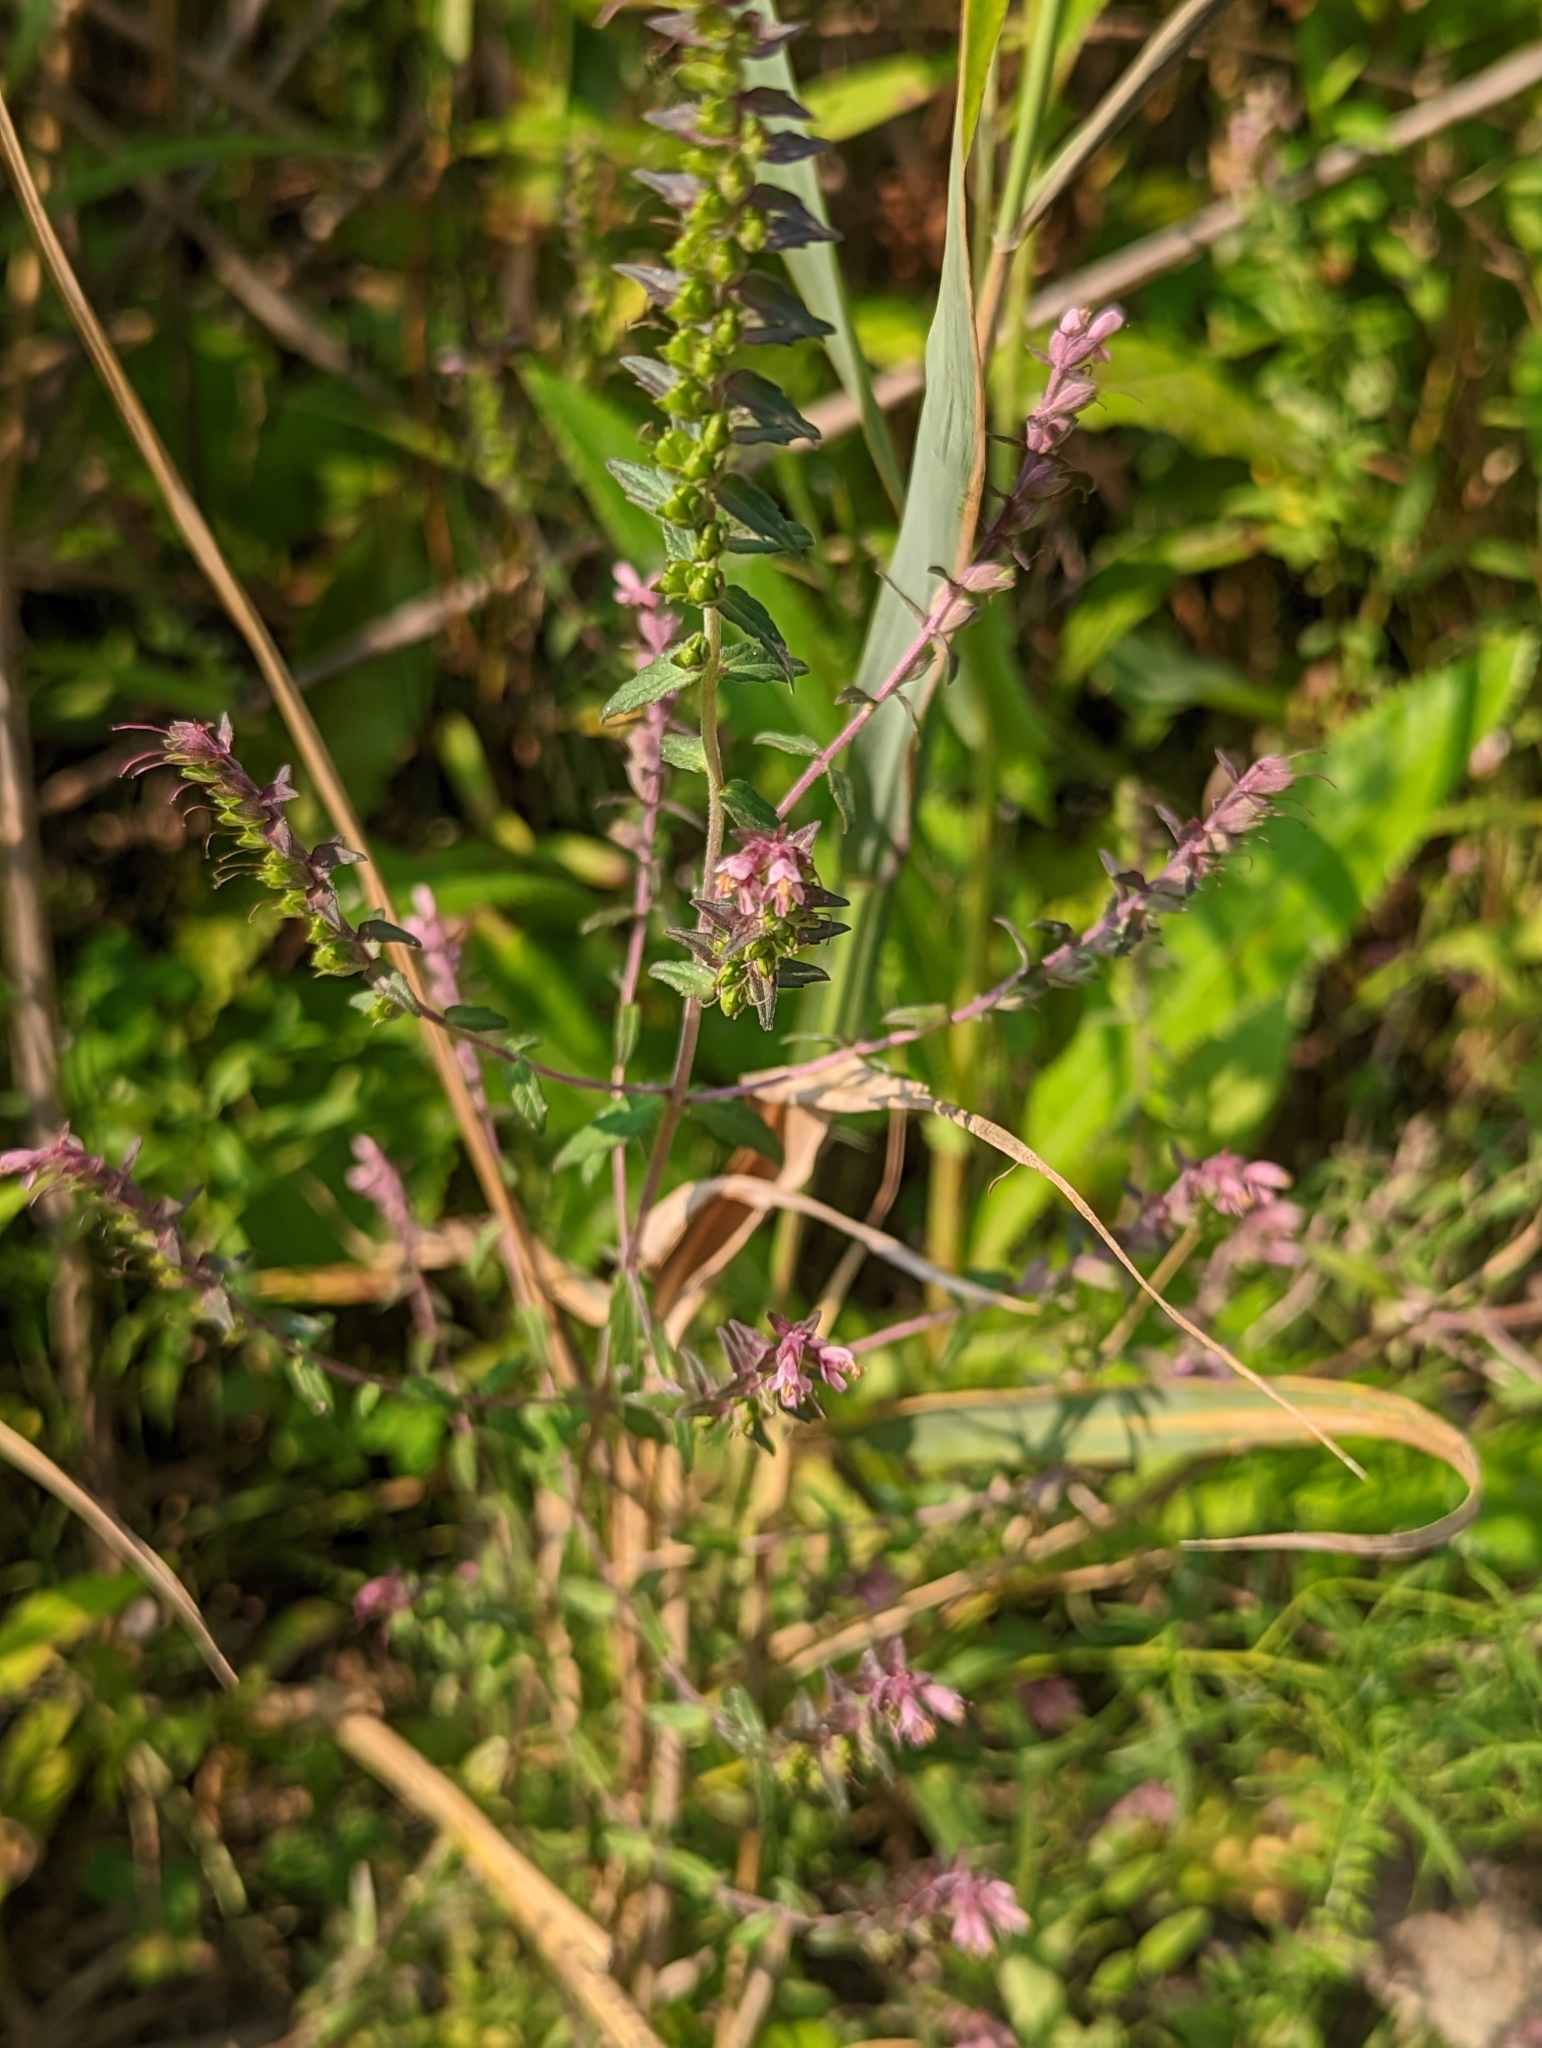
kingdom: Plantae
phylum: Tracheophyta
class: Magnoliopsida
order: Lamiales
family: Orobanchaceae
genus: Odontites
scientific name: Odontites vulgaris
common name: Broomrape
